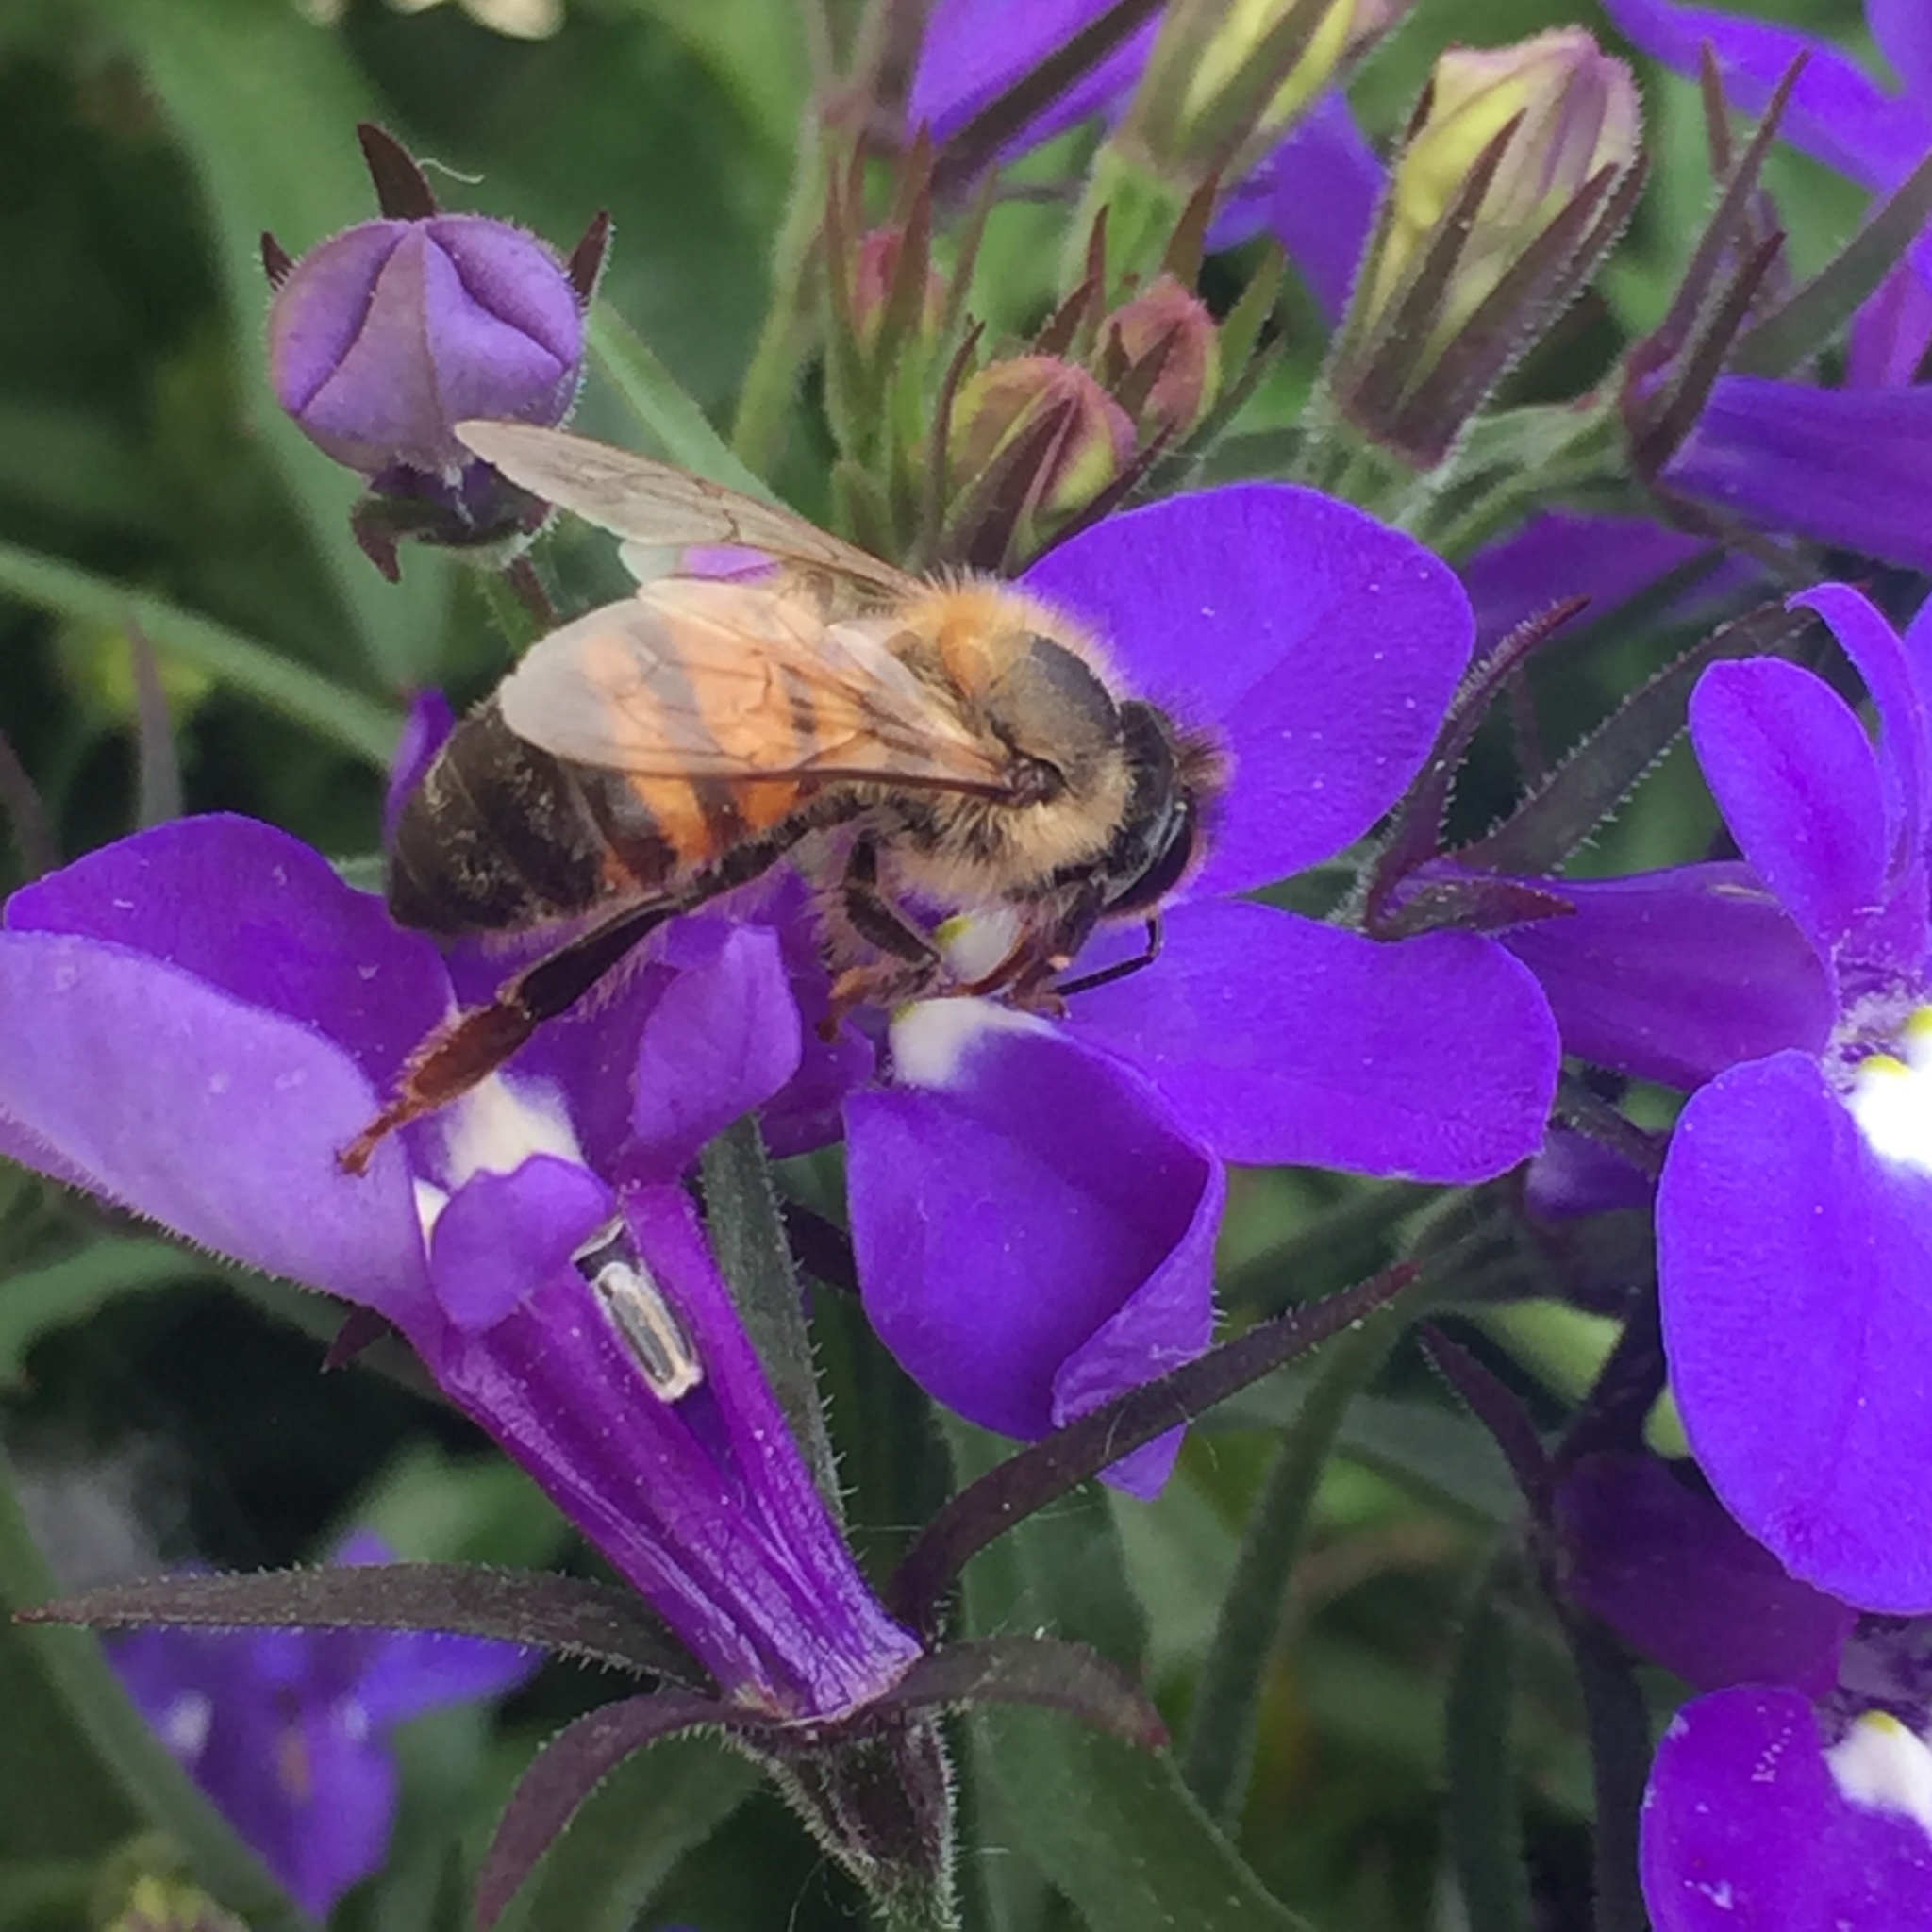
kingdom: Animalia
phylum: Arthropoda
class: Insecta
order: Hymenoptera
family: Apidae
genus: Apis
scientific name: Apis mellifera
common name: Honey bee
